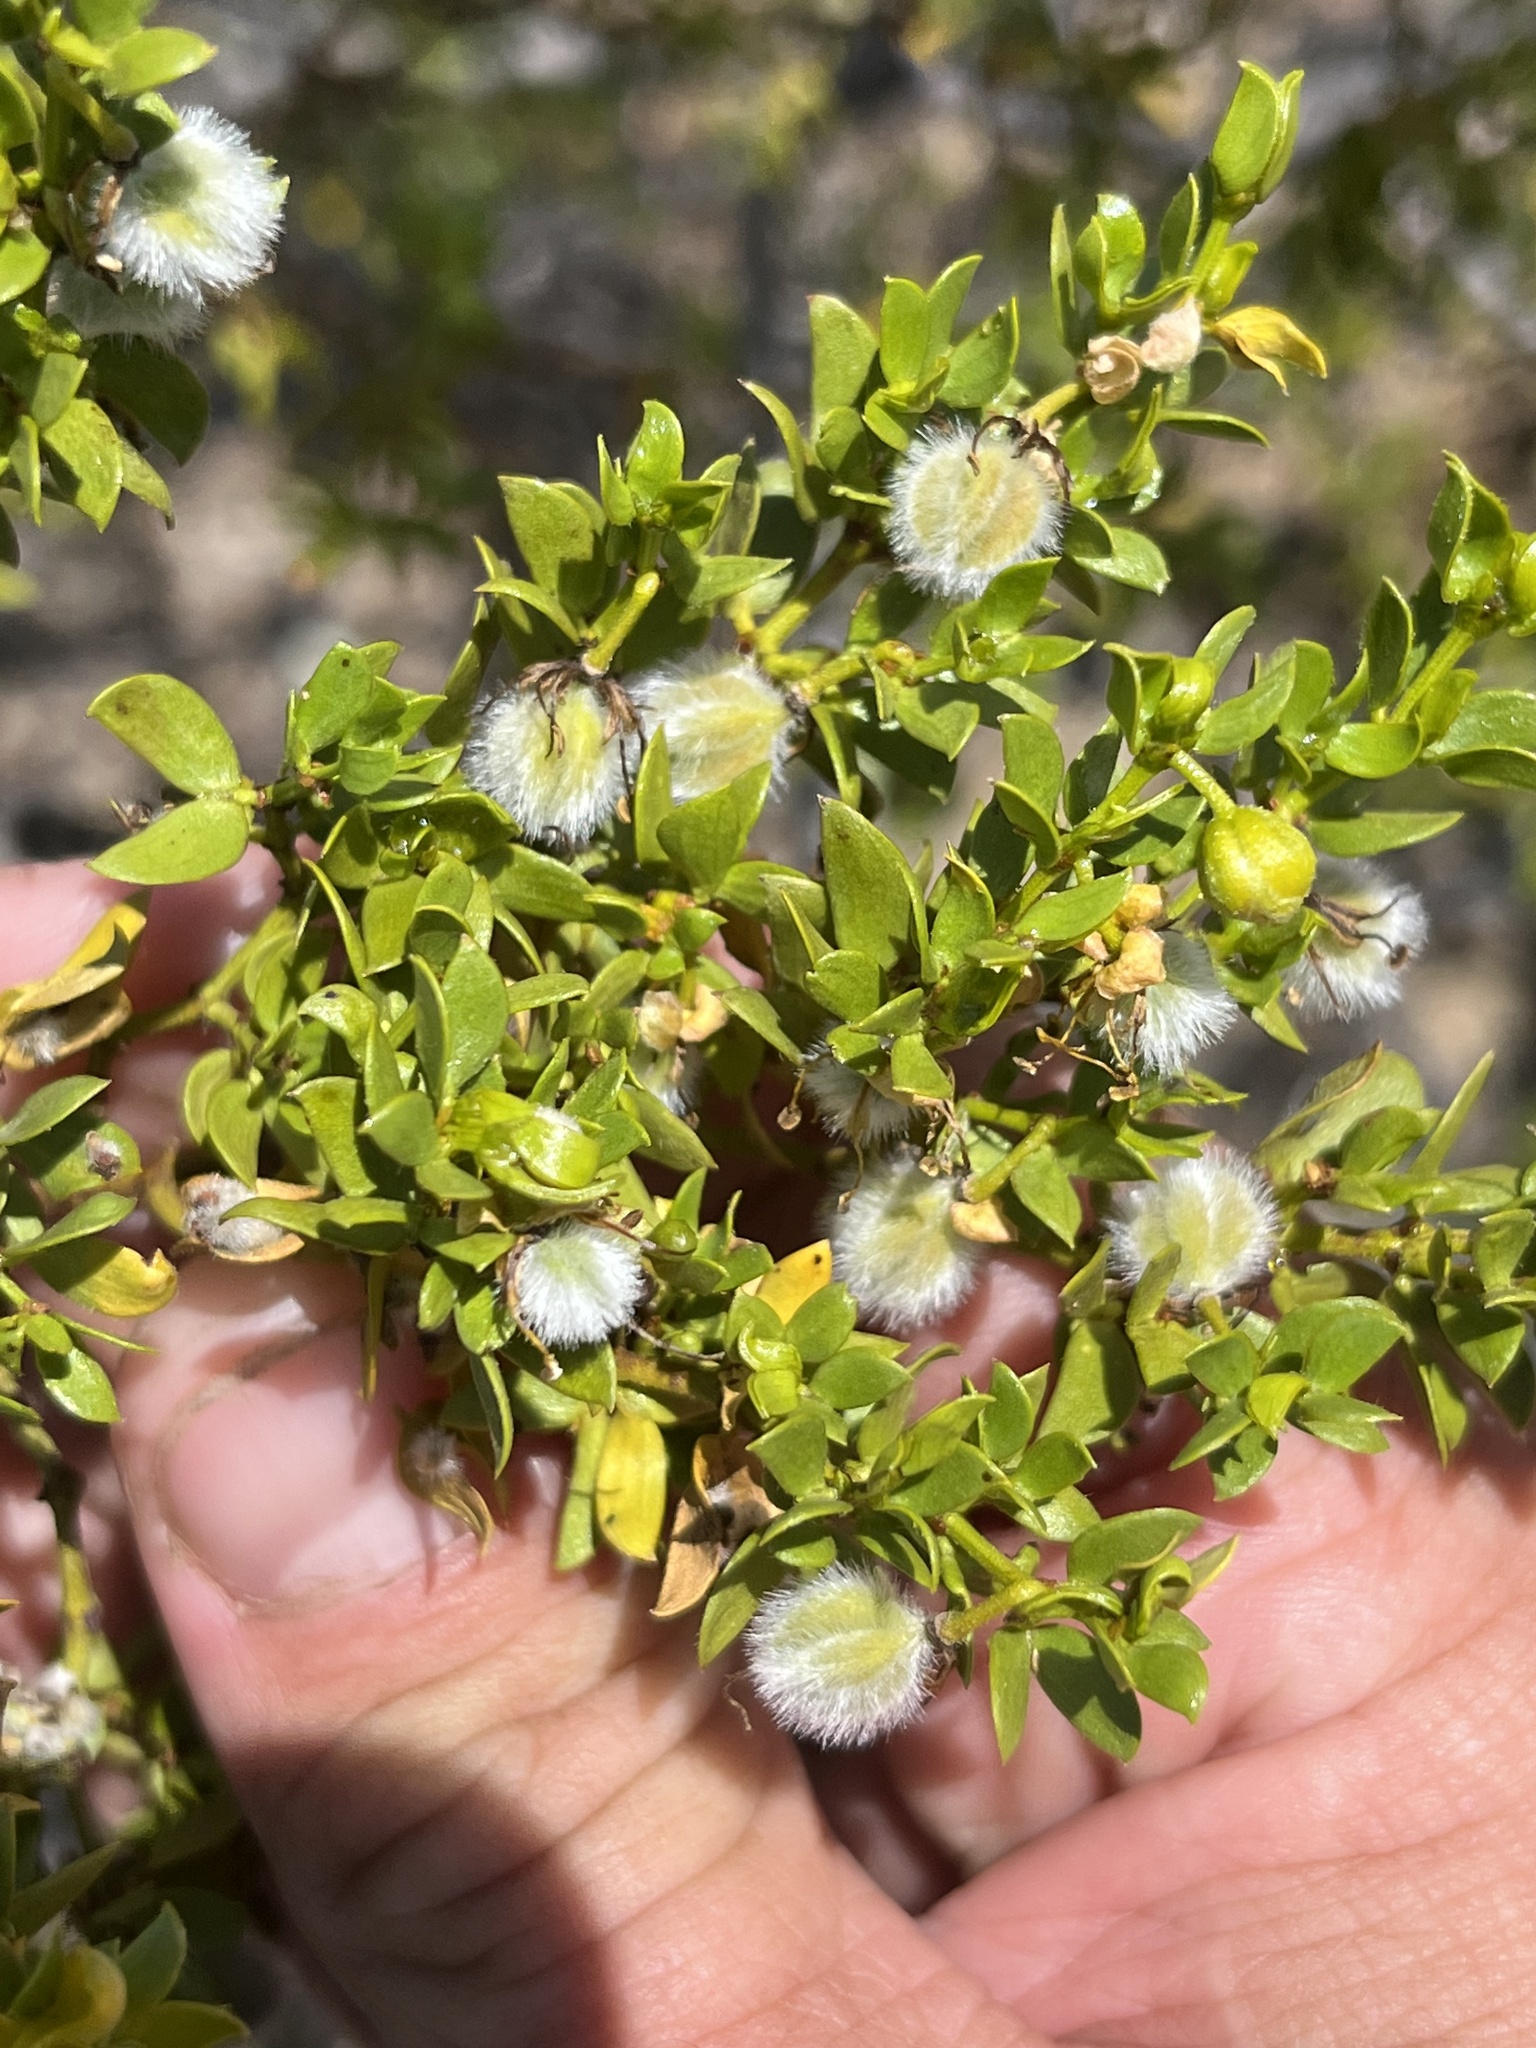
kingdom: Plantae
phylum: Tracheophyta
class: Magnoliopsida
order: Zygophyllales
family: Zygophyllaceae
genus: Larrea
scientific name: Larrea tridentata
